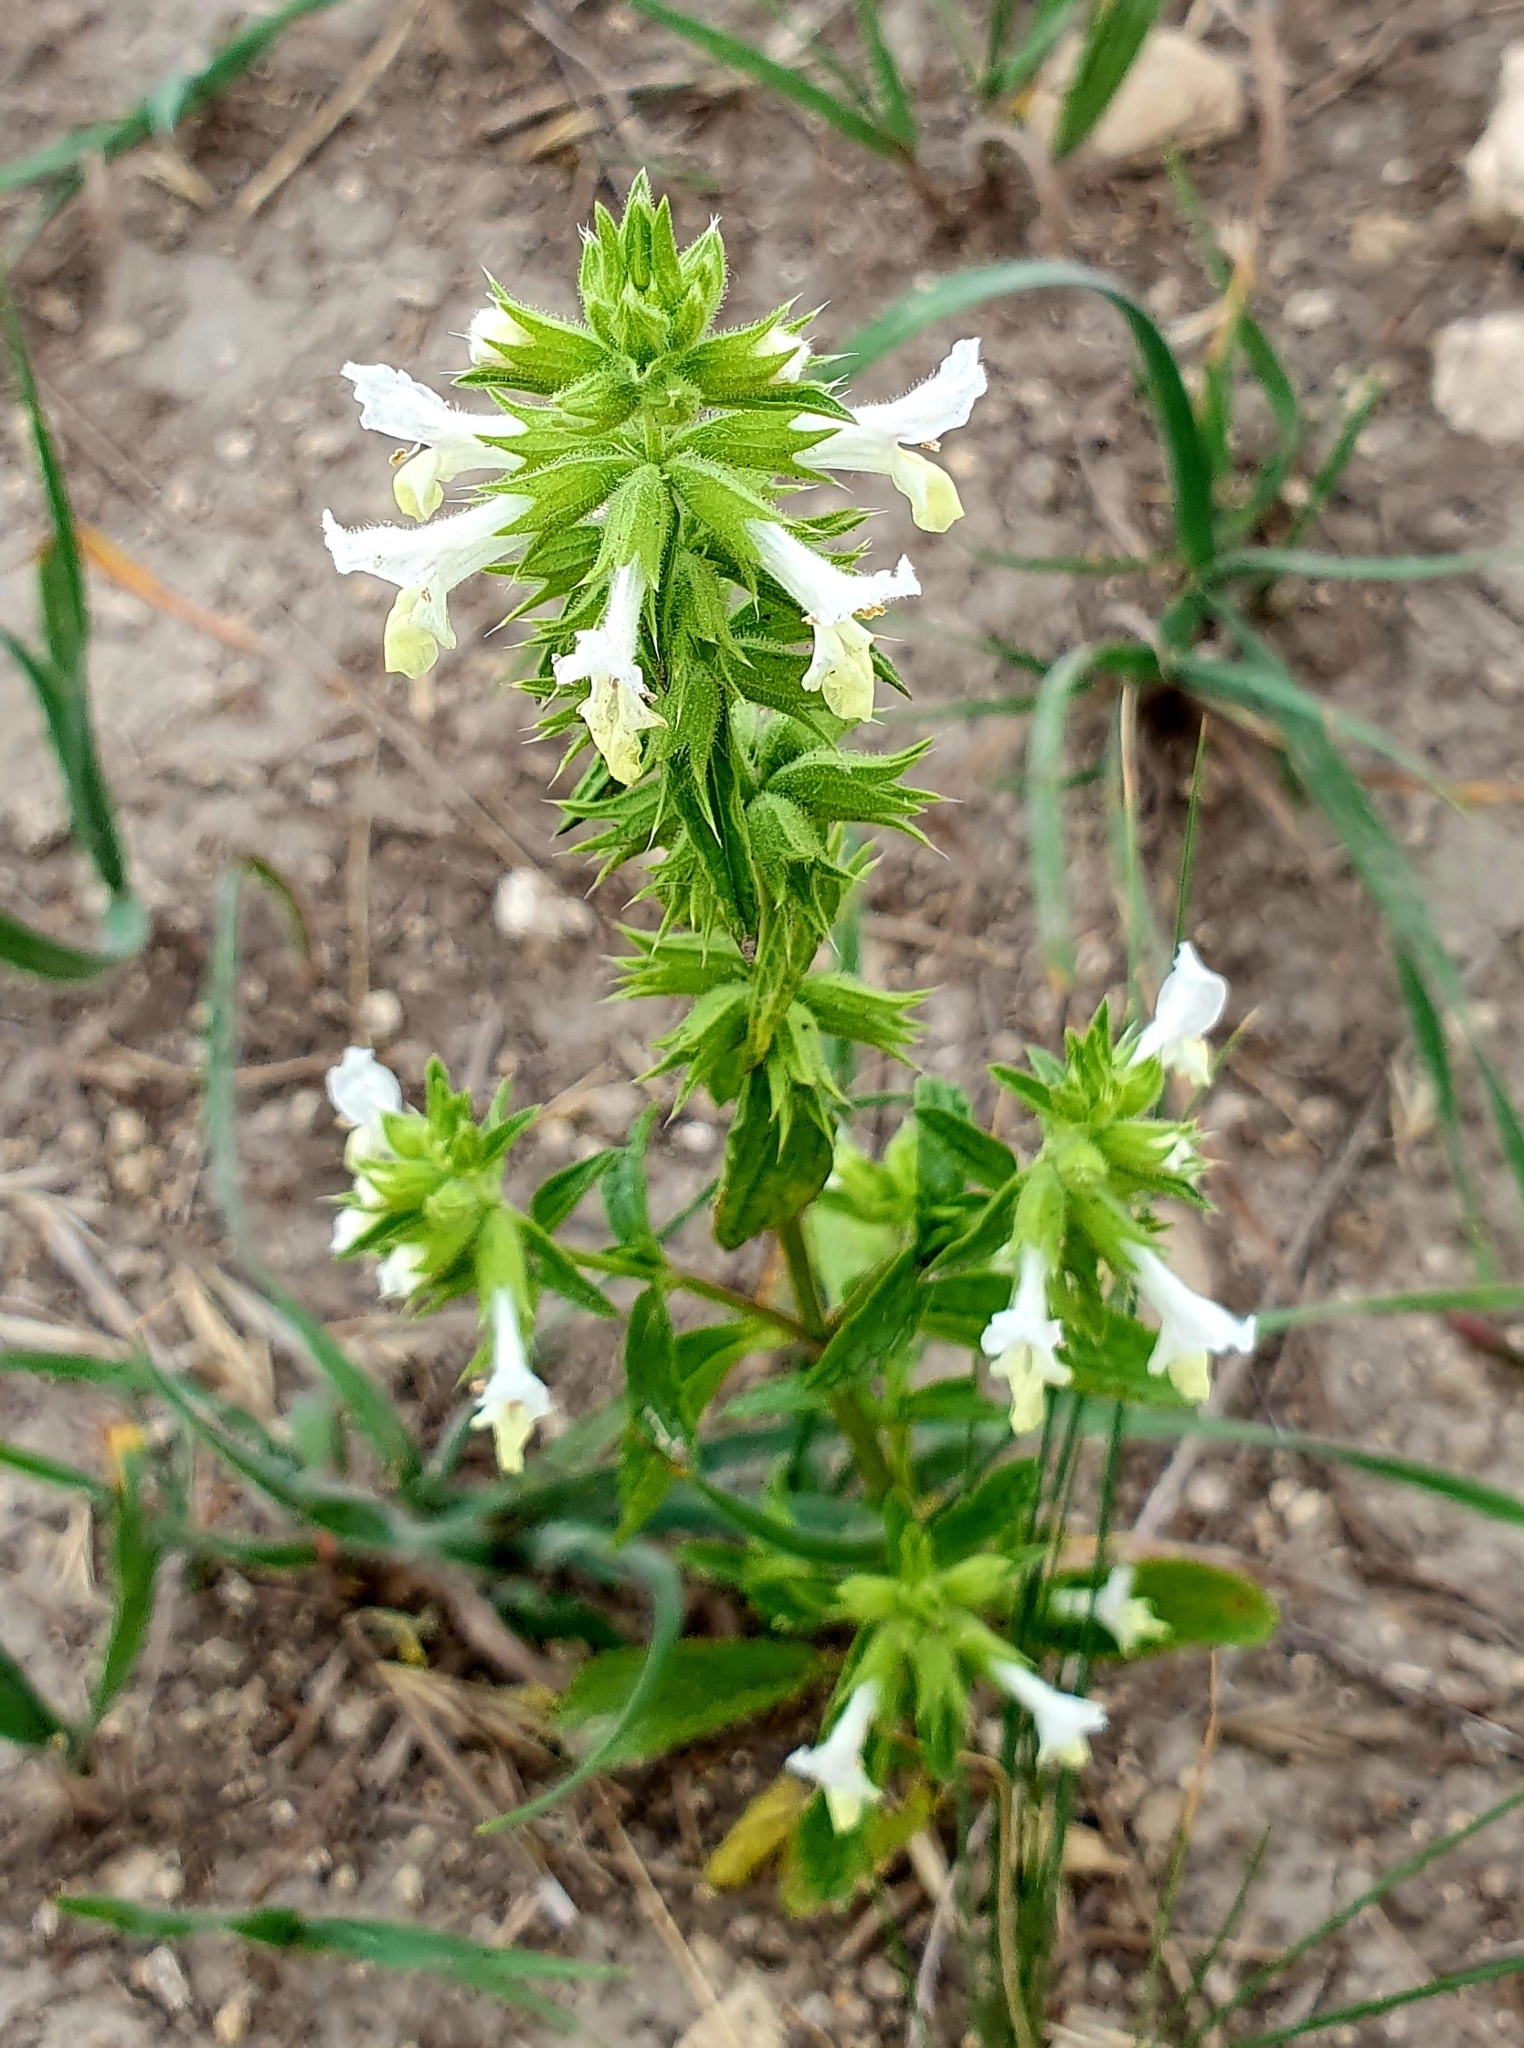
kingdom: Plantae
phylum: Tracheophyta
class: Magnoliopsida
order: Lamiales
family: Lamiaceae
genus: Stachys
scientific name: Stachys annua
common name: Annual yellow-woundwort
